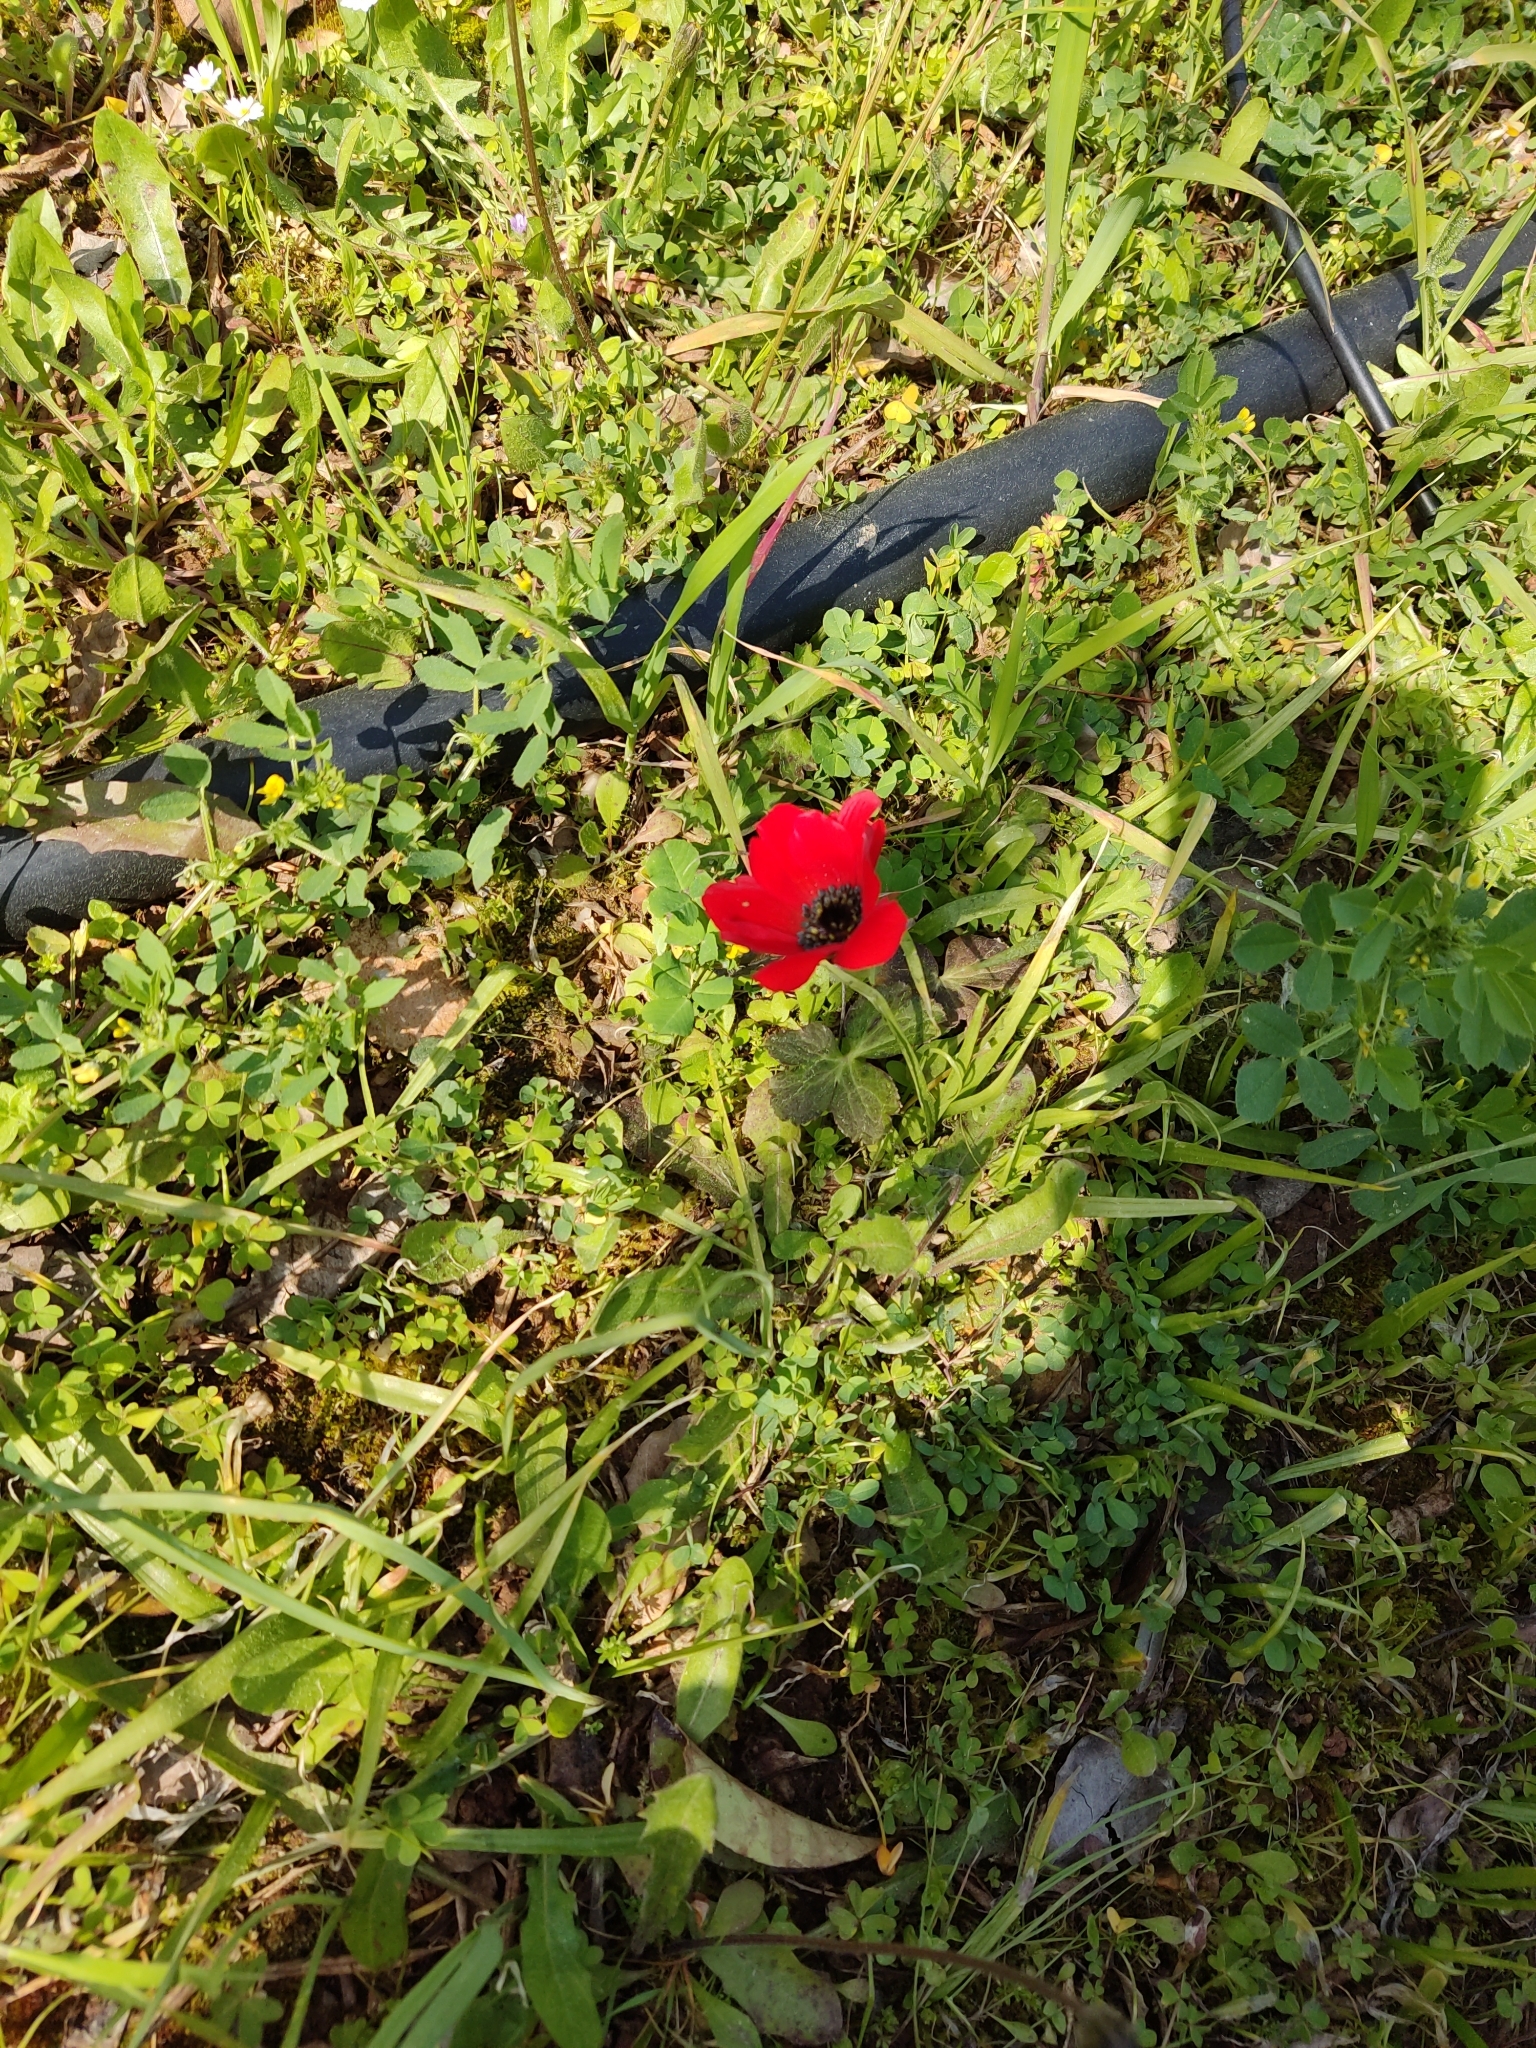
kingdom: Plantae
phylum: Tracheophyta
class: Magnoliopsida
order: Ranunculales
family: Ranunculaceae
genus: Anemone
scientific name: Anemone coronaria
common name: Poppy anemone
